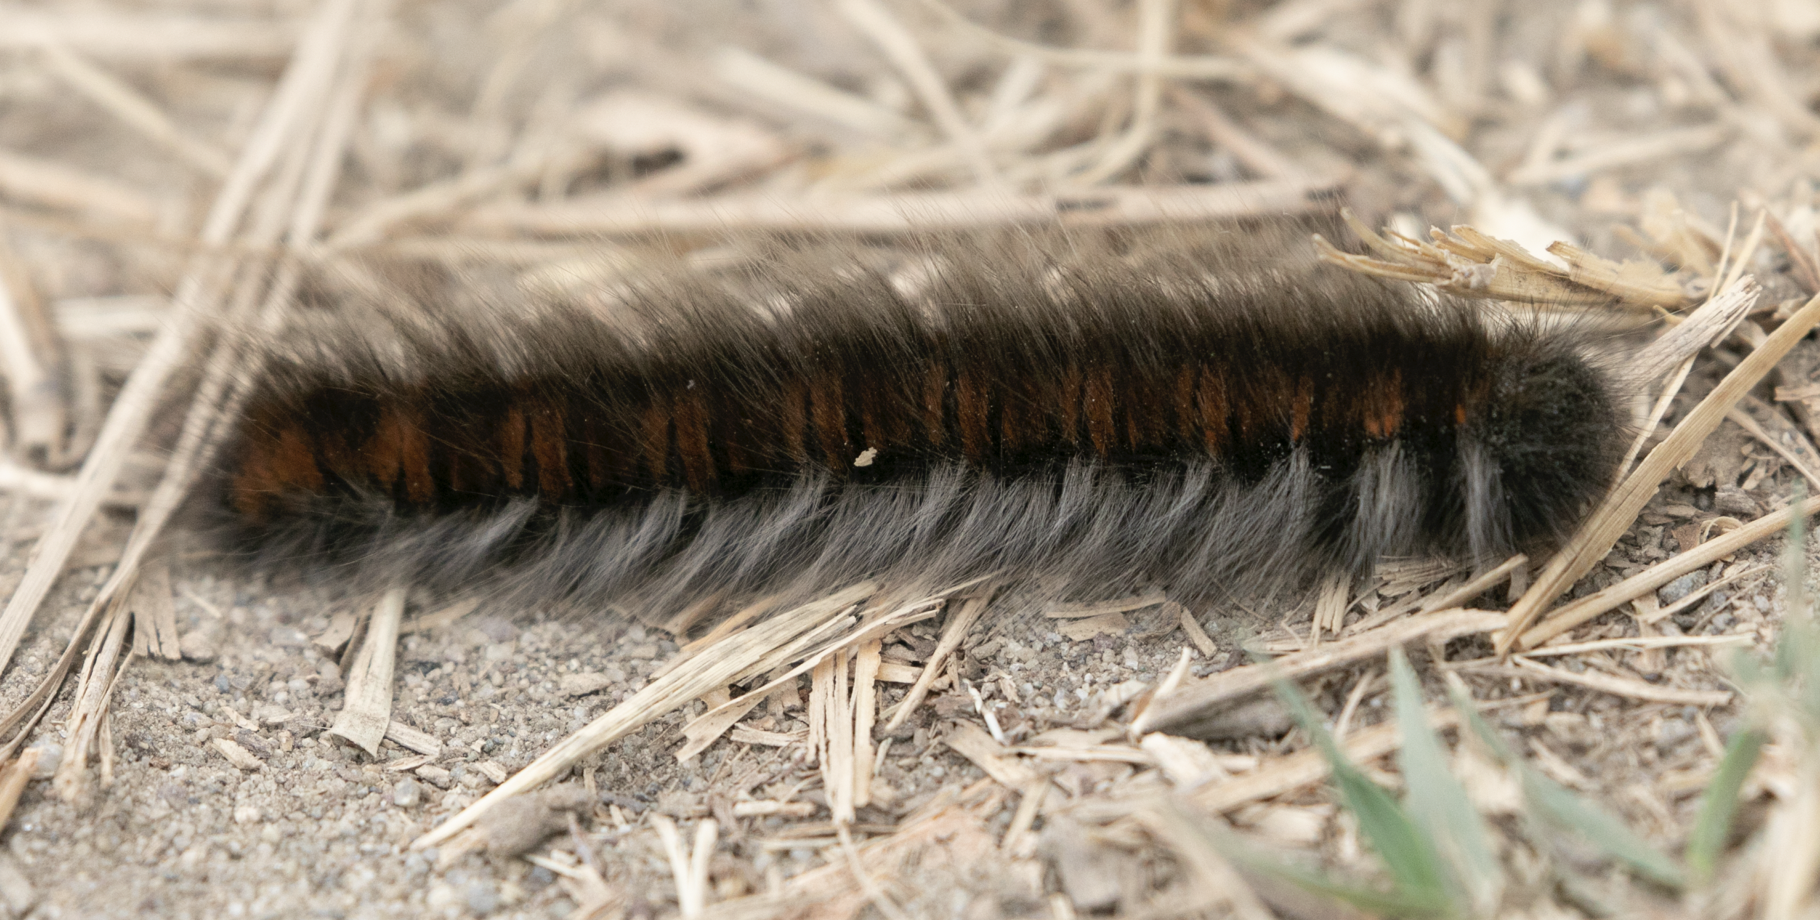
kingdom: Animalia
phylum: Arthropoda
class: Insecta
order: Lepidoptera
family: Lasiocampidae
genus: Macrothylacia
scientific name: Macrothylacia rubi
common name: Fox moth
